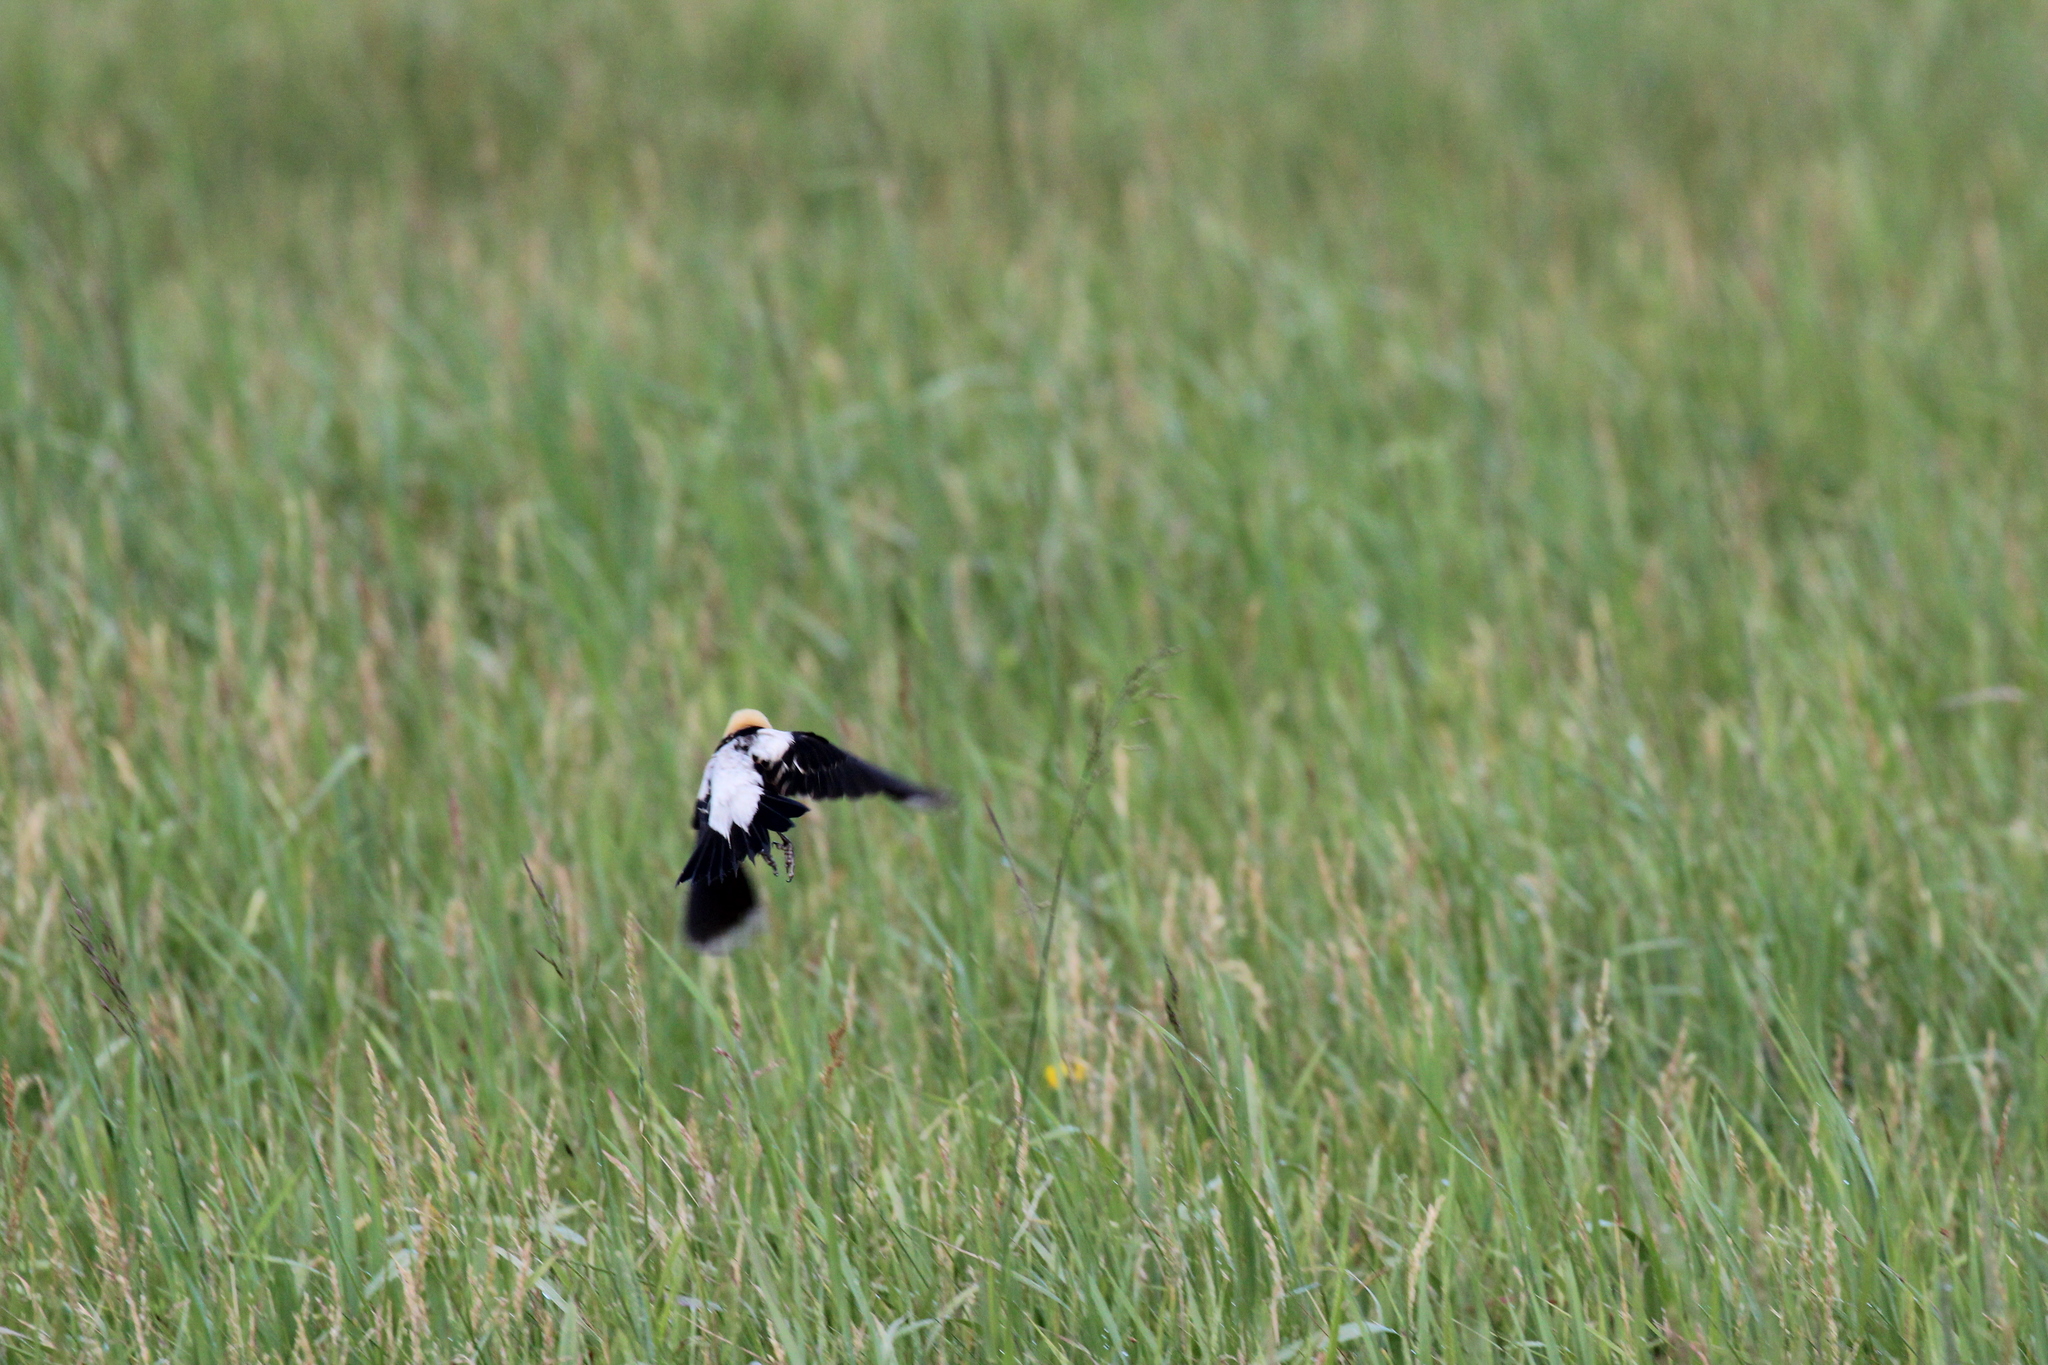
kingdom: Animalia
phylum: Chordata
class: Aves
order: Passeriformes
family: Icteridae
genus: Dolichonyx
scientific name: Dolichonyx oryzivorus
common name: Bobolink
